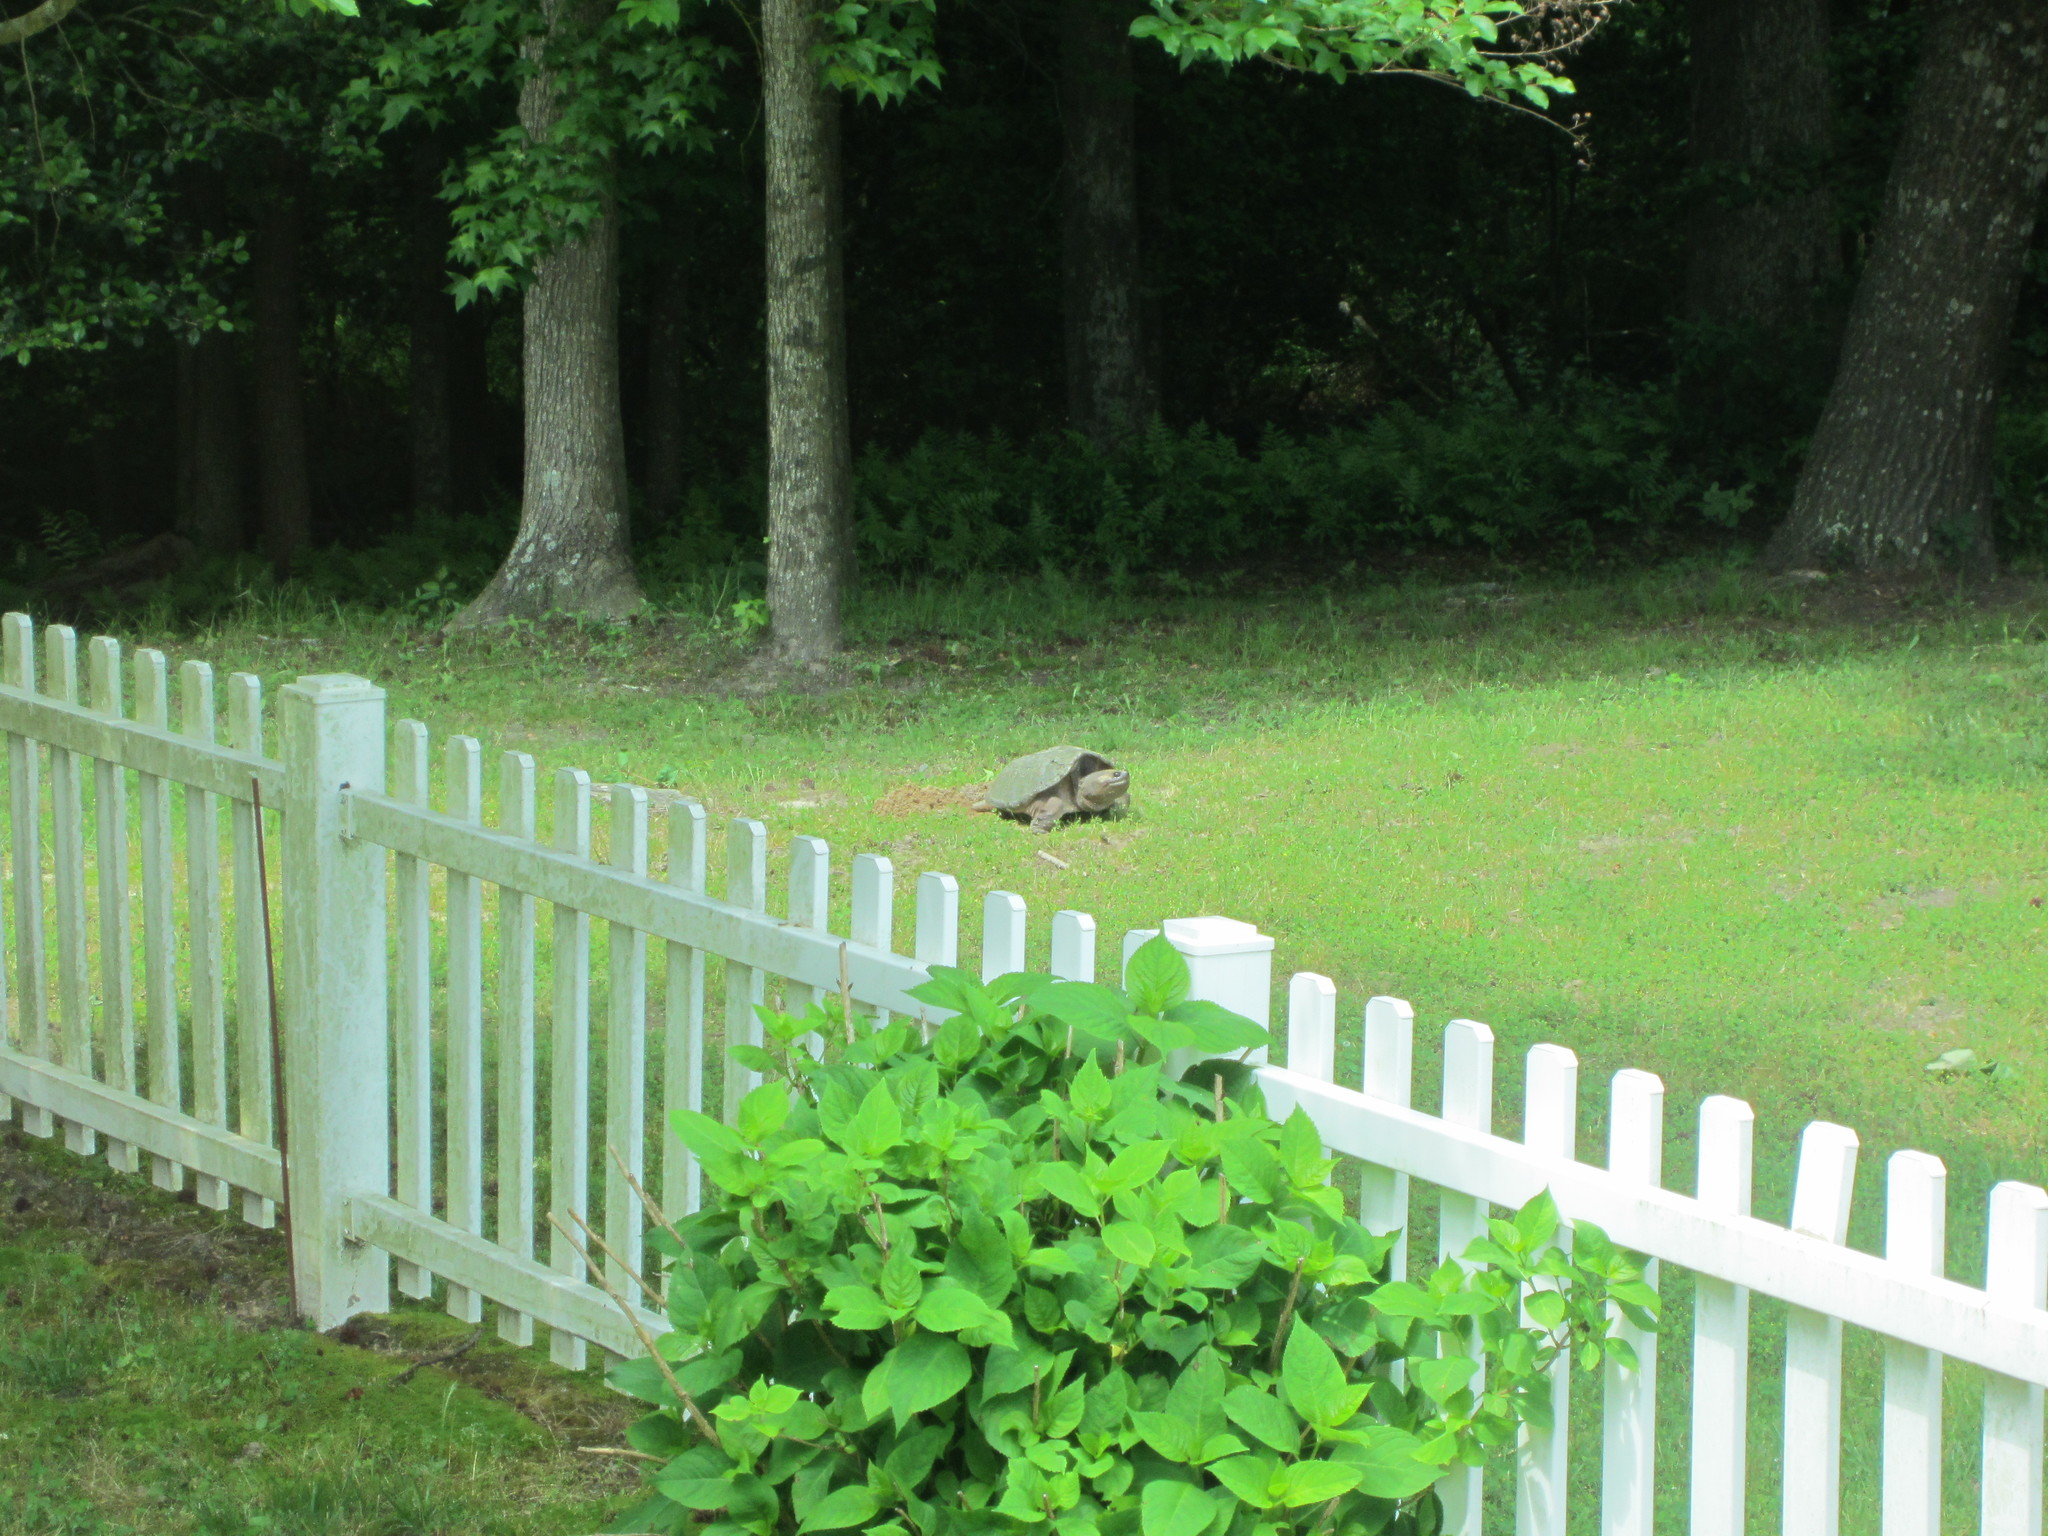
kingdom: Animalia
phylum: Chordata
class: Testudines
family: Chelydridae
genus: Chelydra
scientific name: Chelydra serpentina
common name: Common snapping turtle
